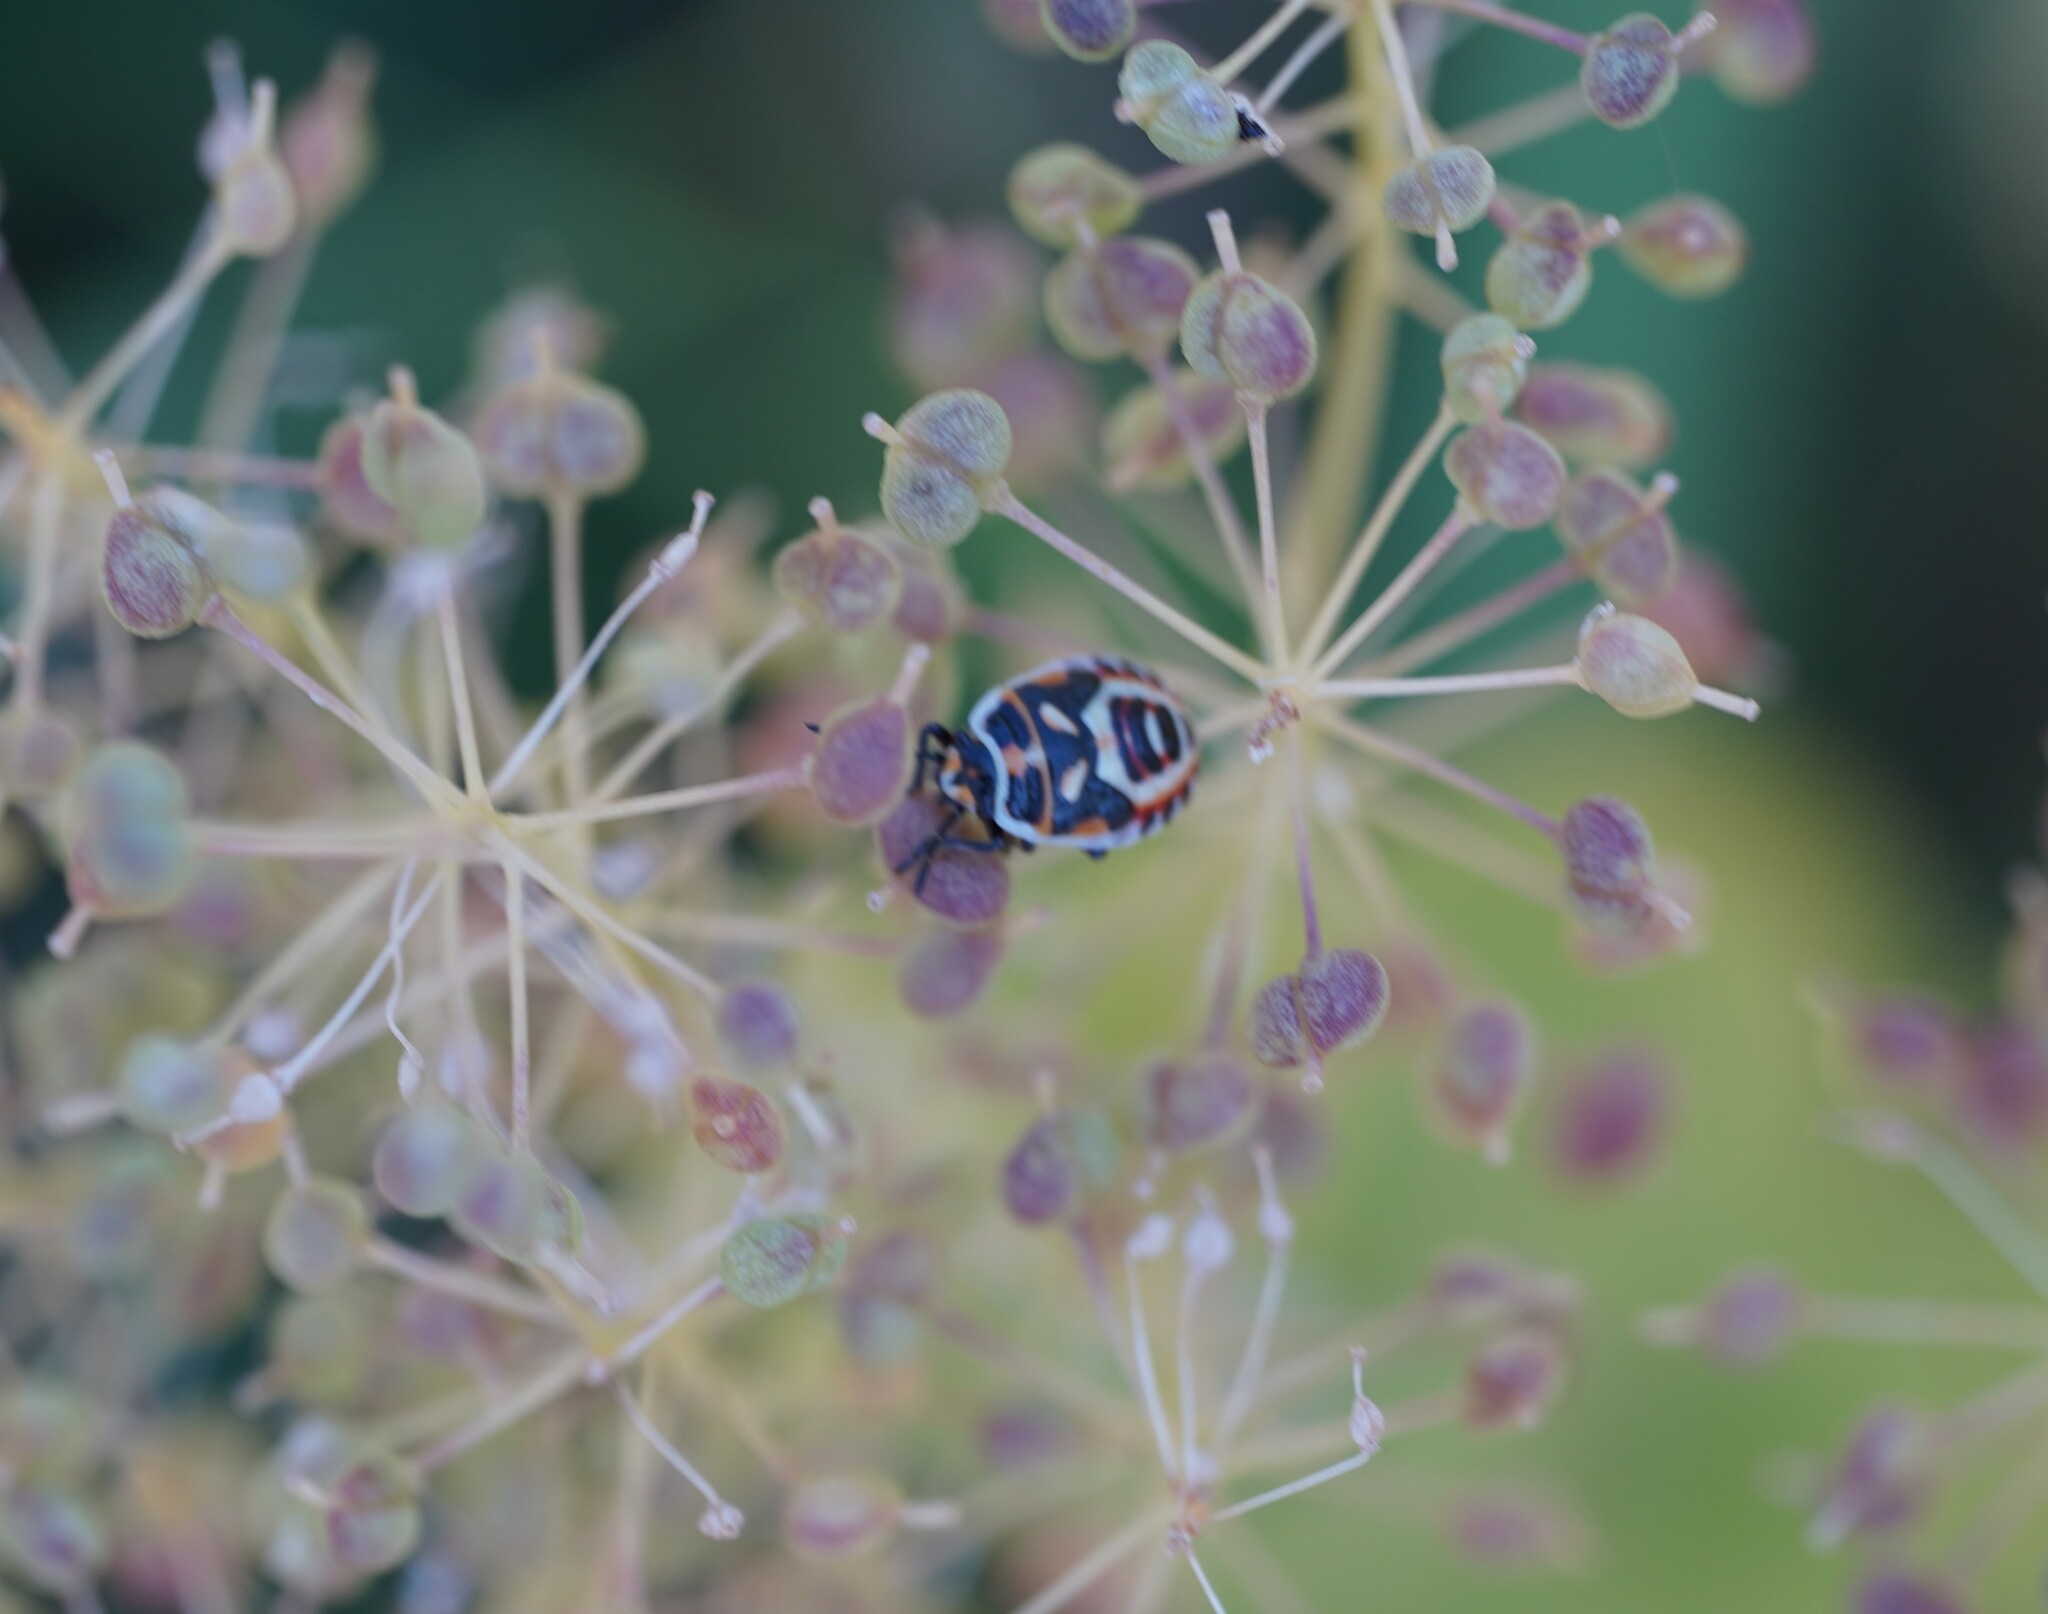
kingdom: Animalia
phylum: Arthropoda
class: Insecta
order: Hemiptera
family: Pentatomidae
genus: Eurydema
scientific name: Eurydema ornata
